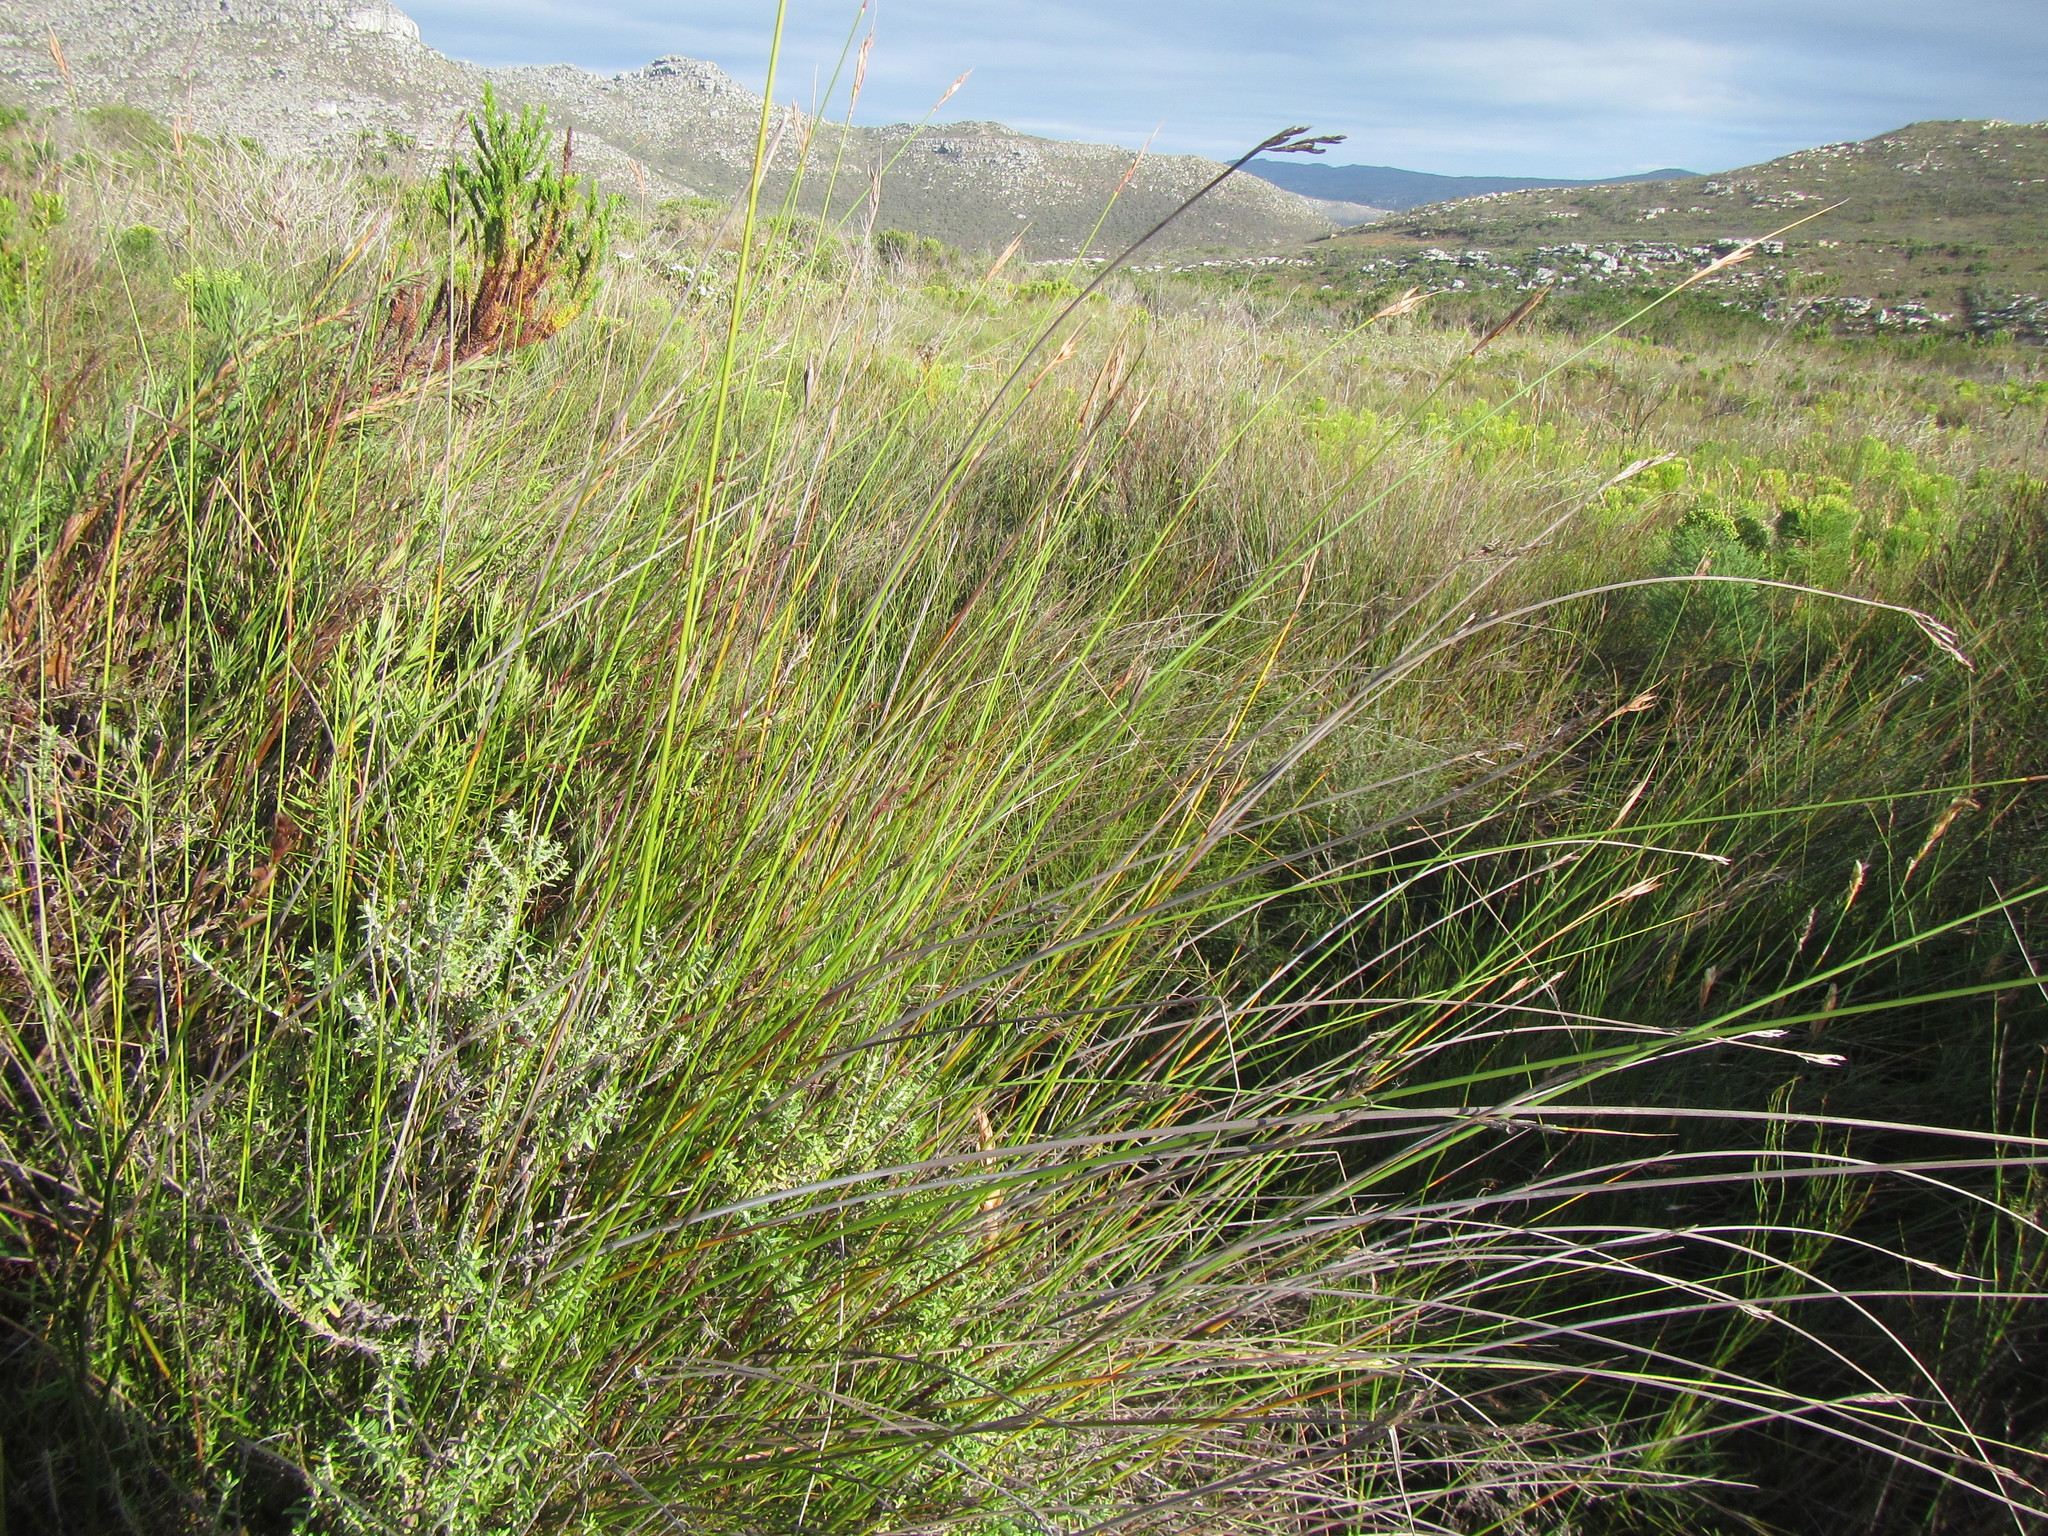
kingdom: Plantae
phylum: Tracheophyta
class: Liliopsida
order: Poales
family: Cyperaceae
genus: Neesenbeckia
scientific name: Neesenbeckia punctoria
